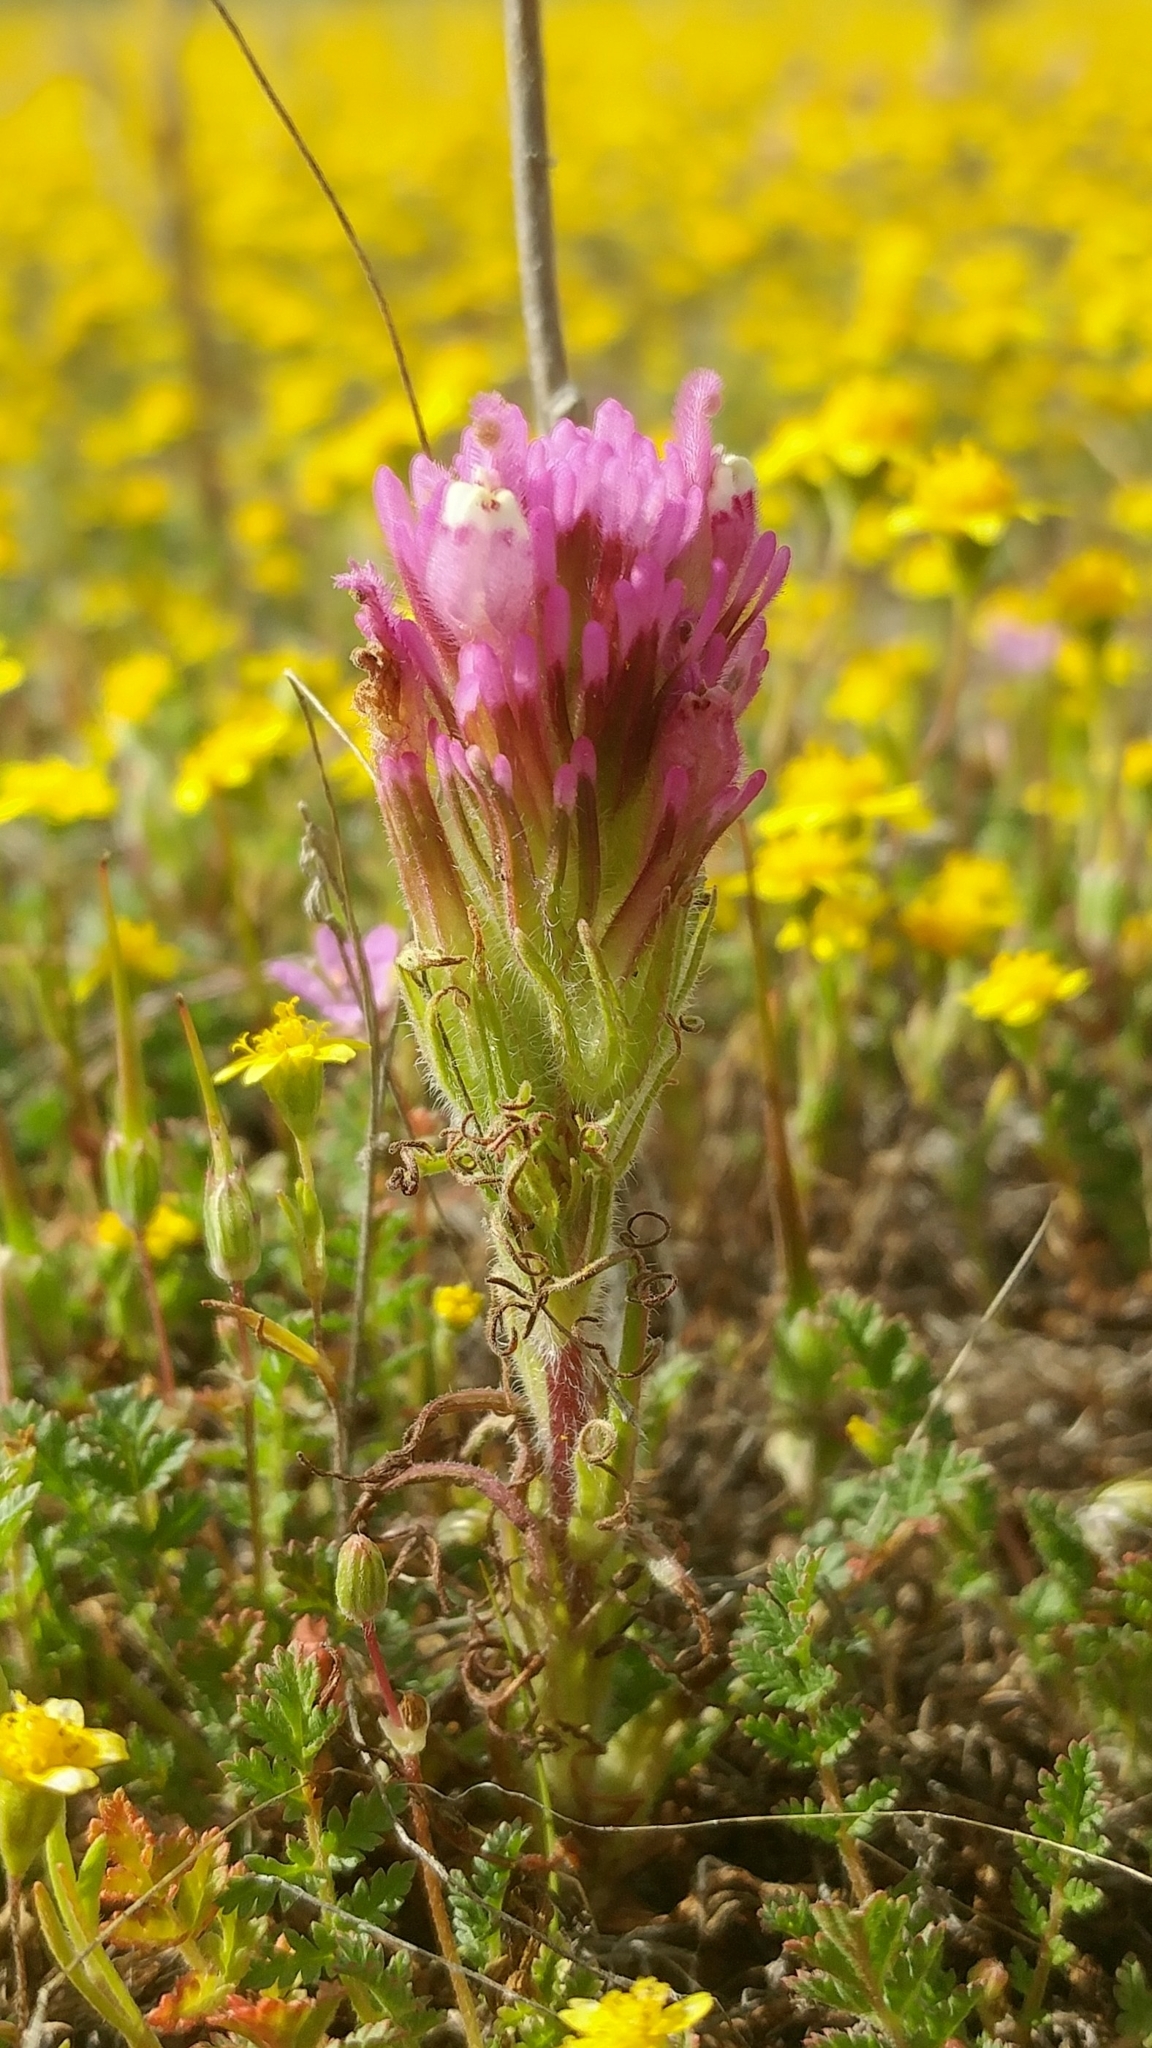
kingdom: Plantae
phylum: Tracheophyta
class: Magnoliopsida
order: Lamiales
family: Orobanchaceae
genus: Castilleja
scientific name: Castilleja exserta
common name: Purple owl-clover
